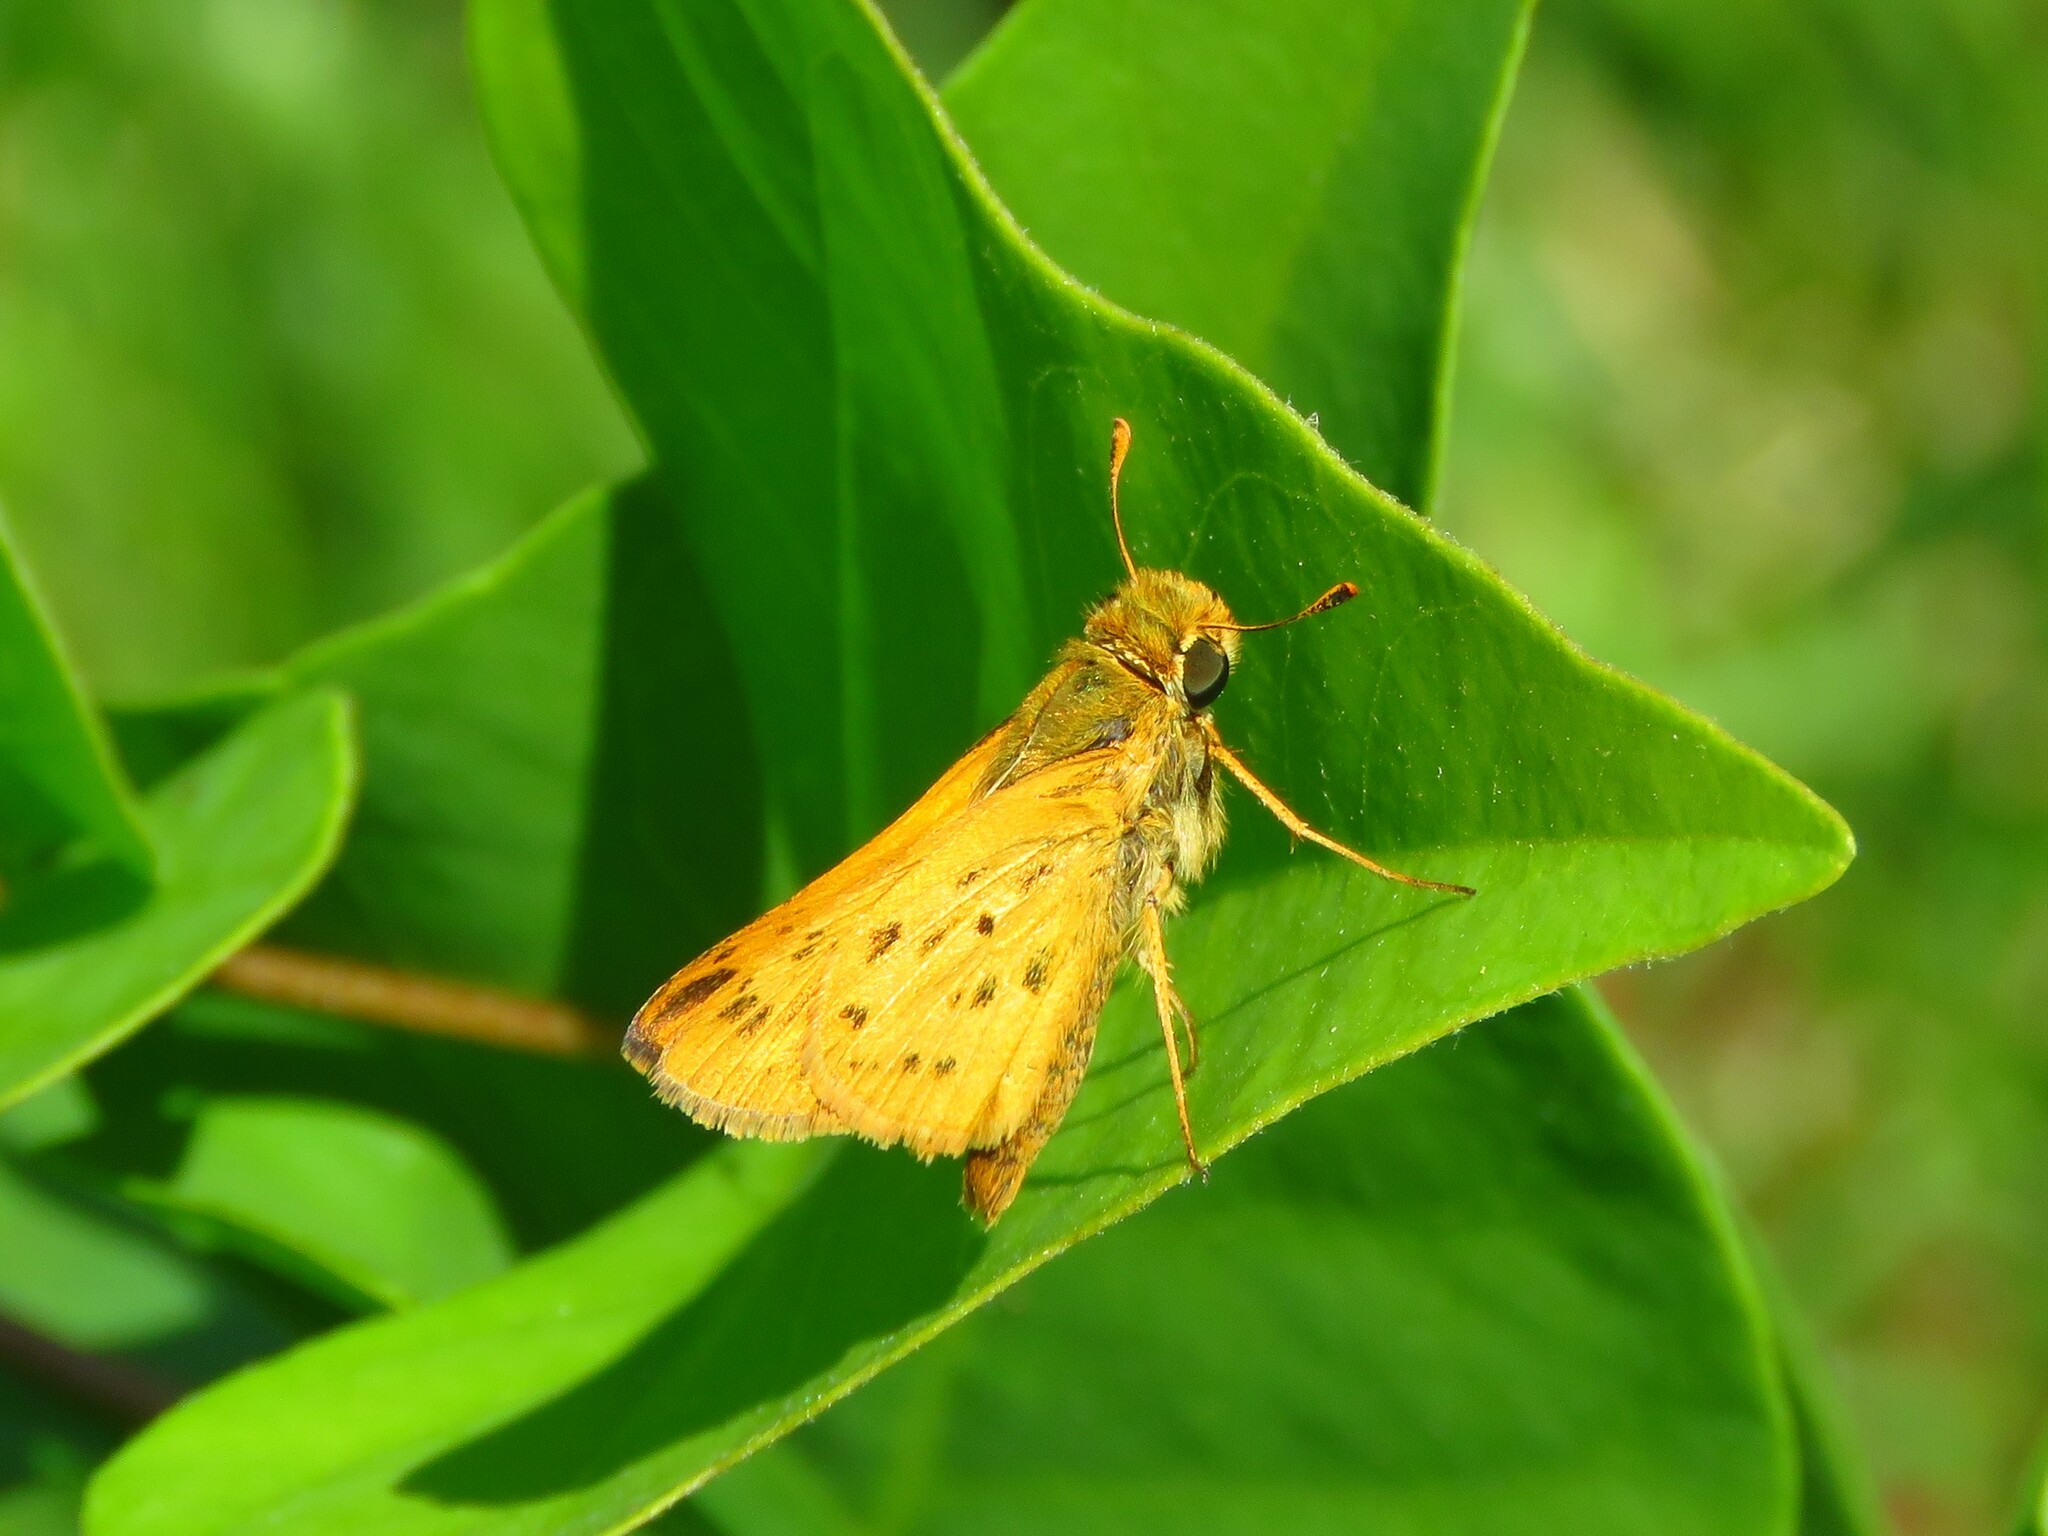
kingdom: Animalia
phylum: Arthropoda
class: Insecta
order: Lepidoptera
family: Hesperiidae
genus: Hylephila
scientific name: Hylephila phyleus
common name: Fiery skipper
